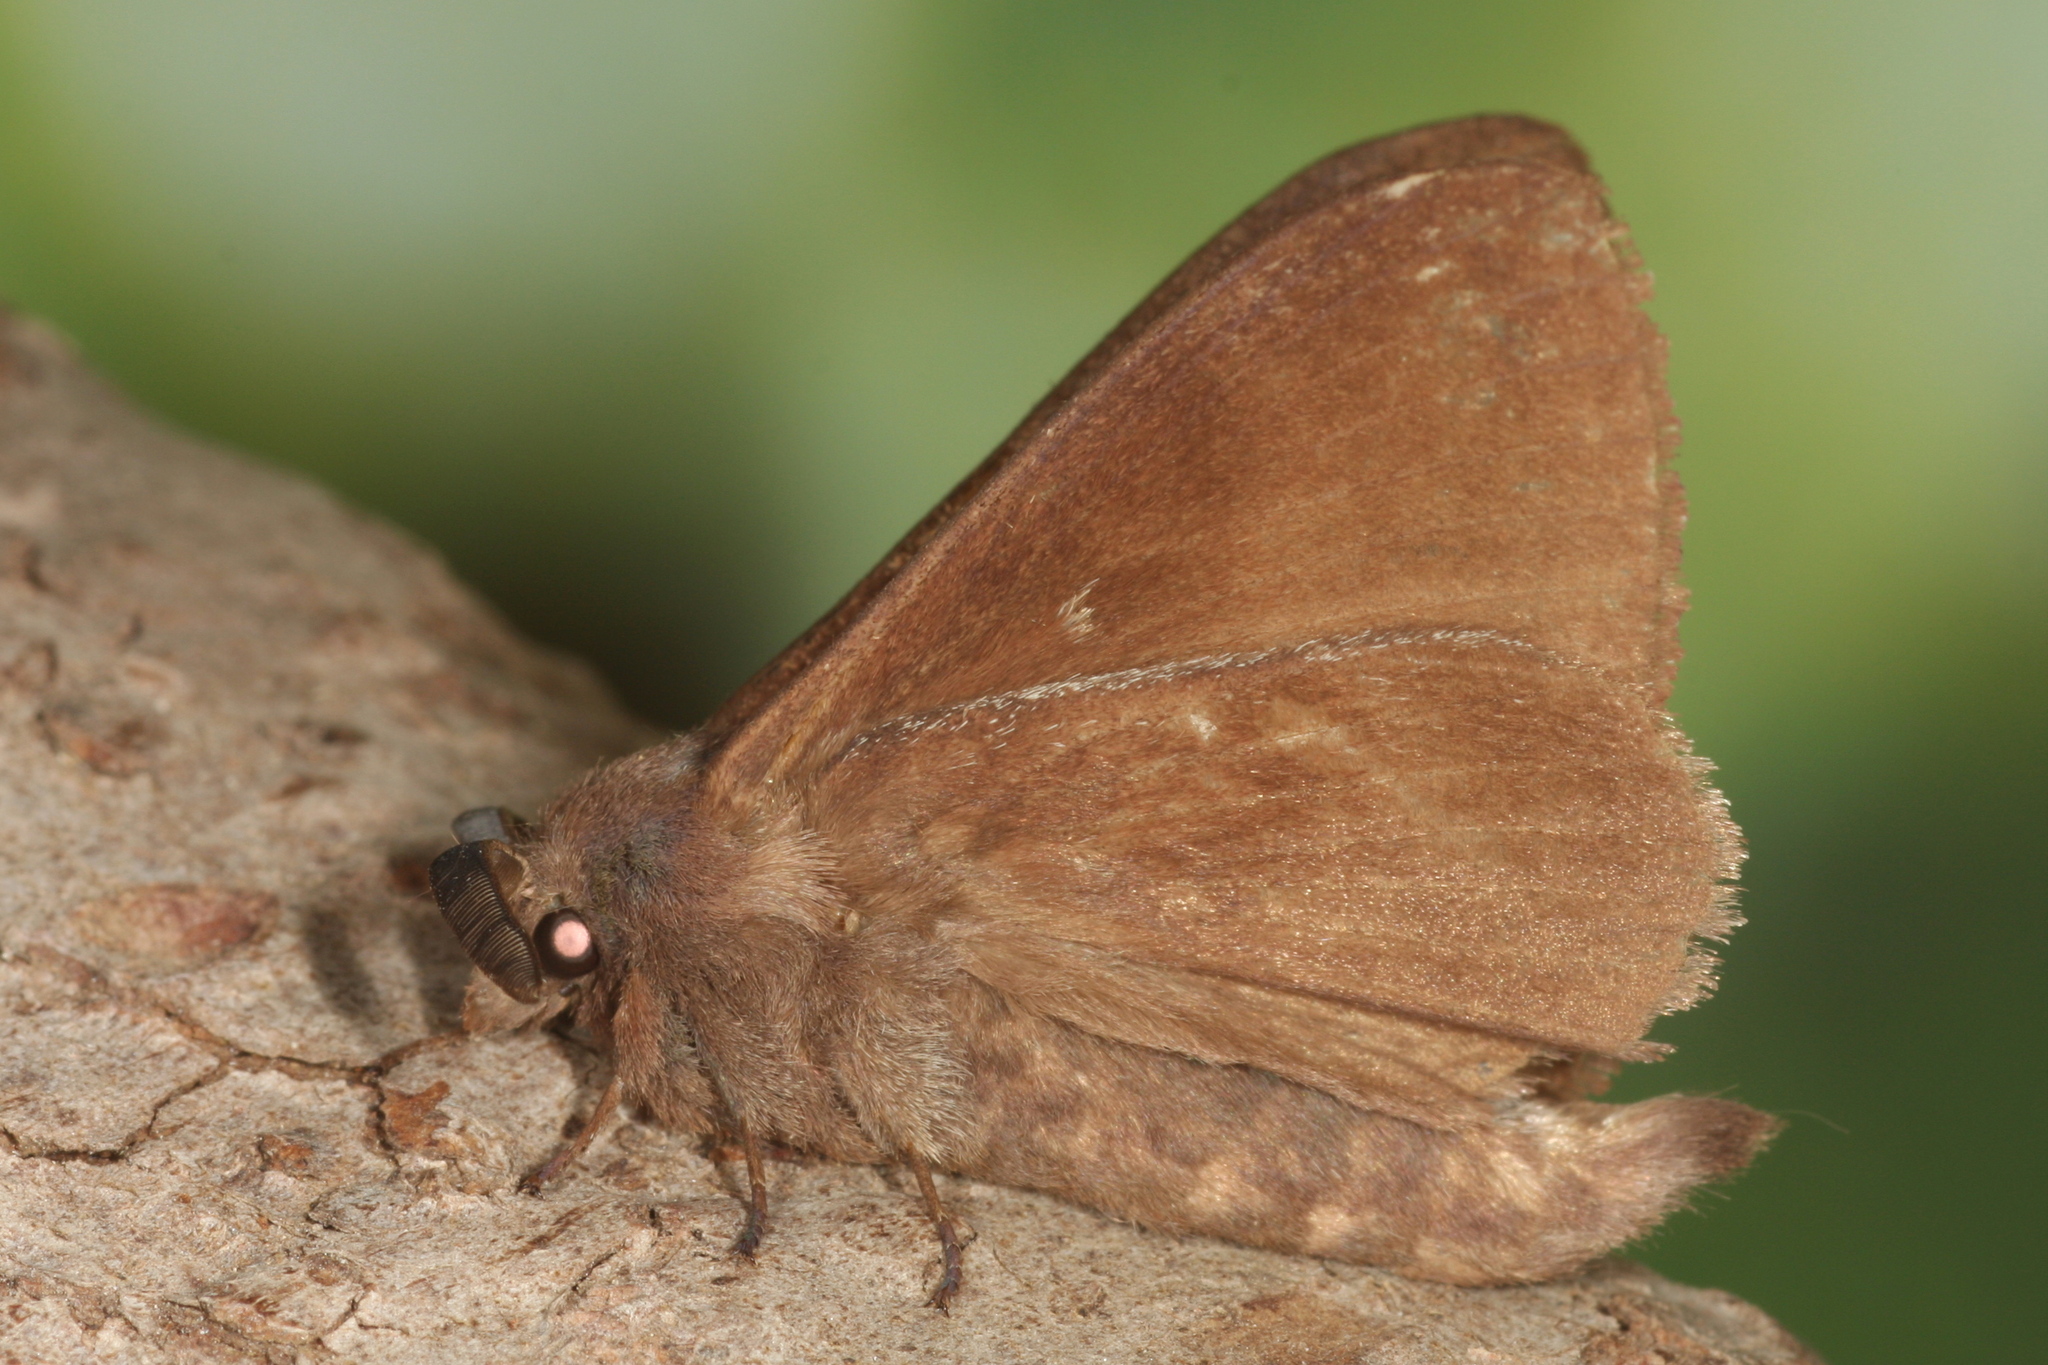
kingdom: Animalia
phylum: Arthropoda
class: Insecta
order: Lepidoptera
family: Lasiocampidae
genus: Dendrolimus
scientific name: Dendrolimus pini
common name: Pine-tree lappet
